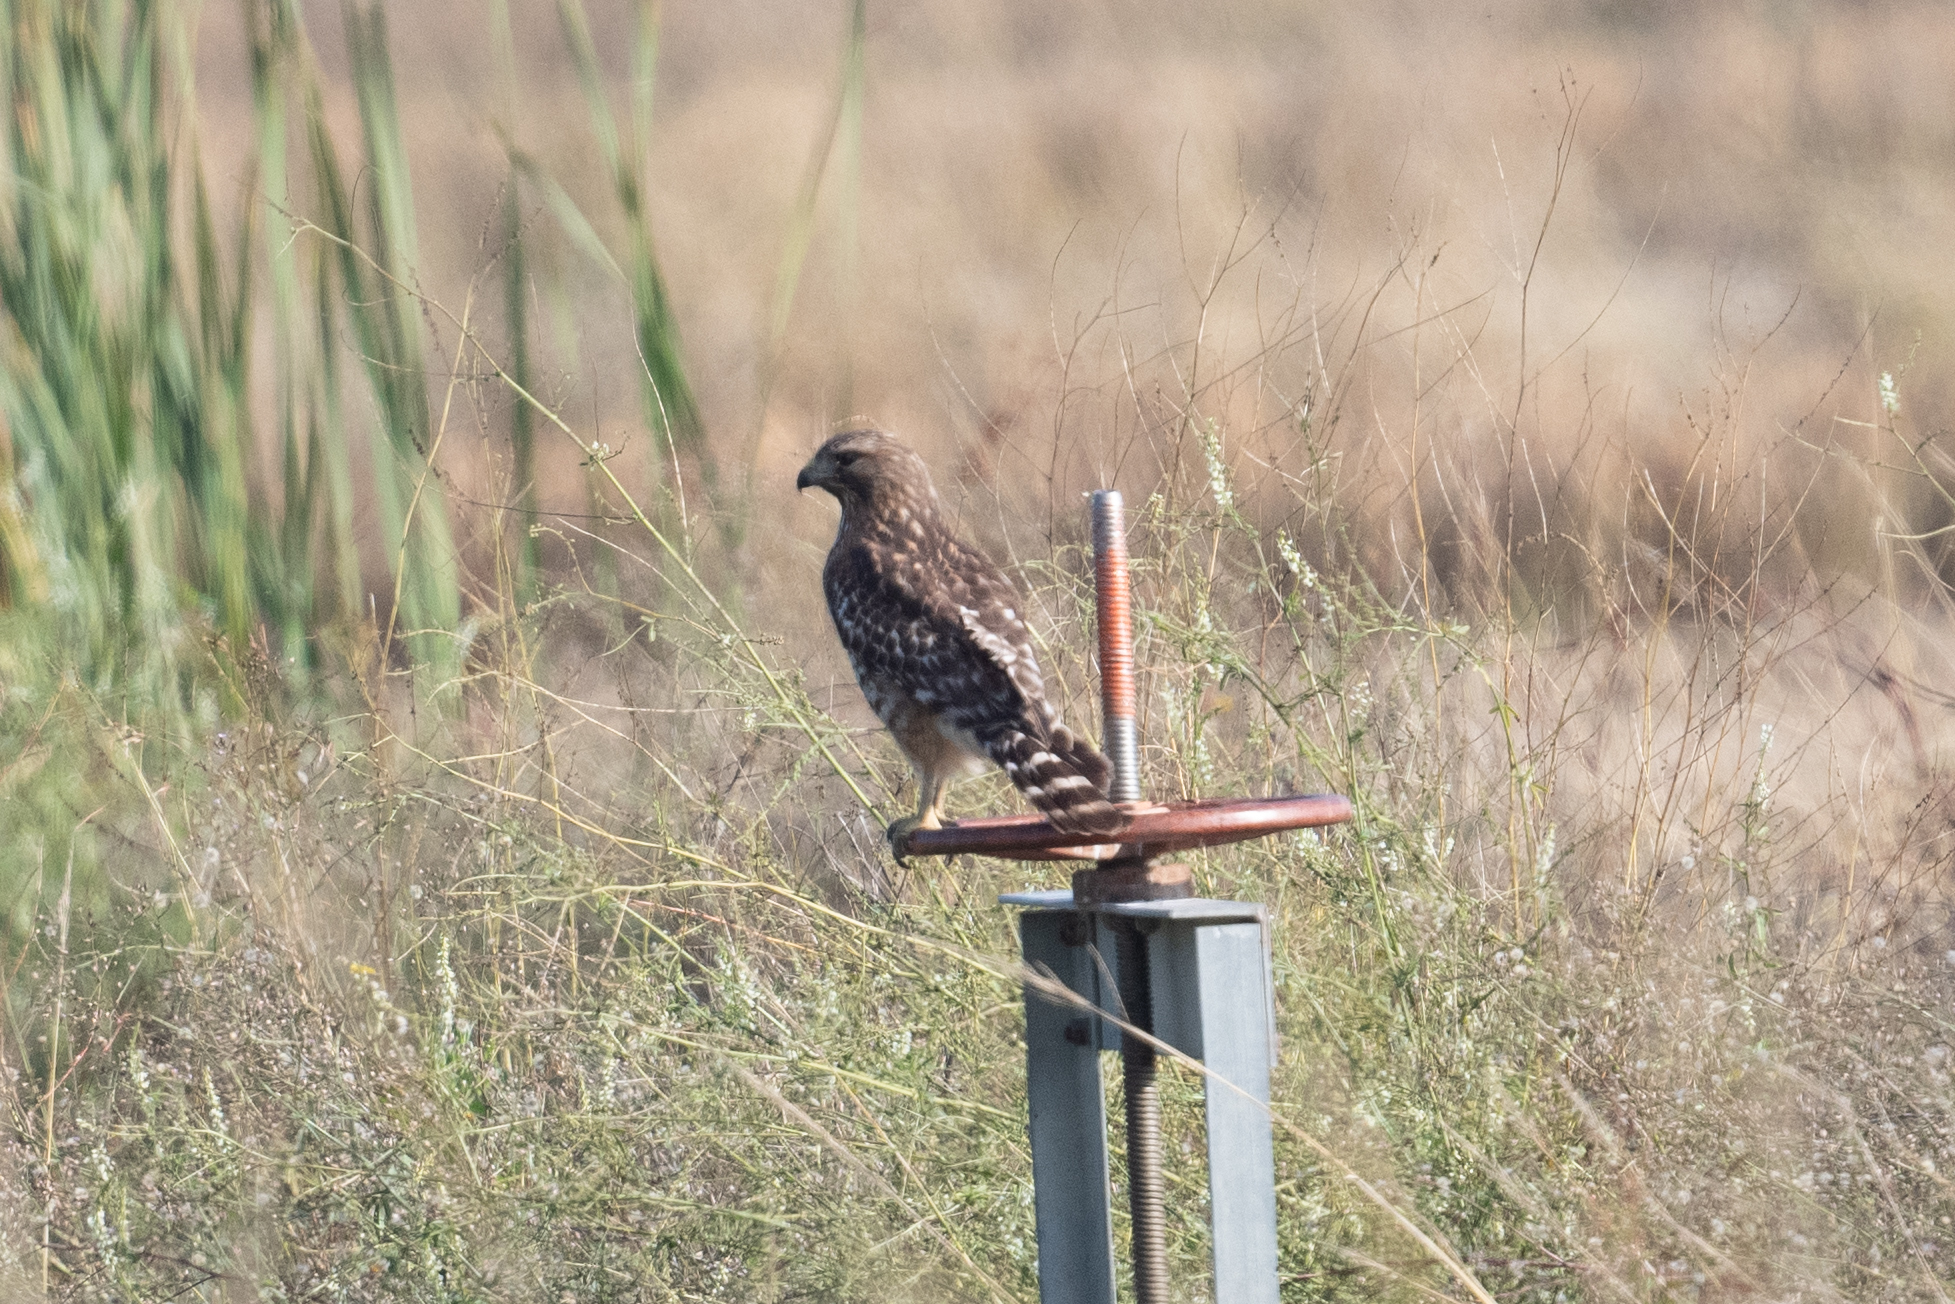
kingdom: Animalia
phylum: Chordata
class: Aves
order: Accipitriformes
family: Accipitridae
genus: Buteo
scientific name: Buteo lineatus
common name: Red-shouldered hawk
